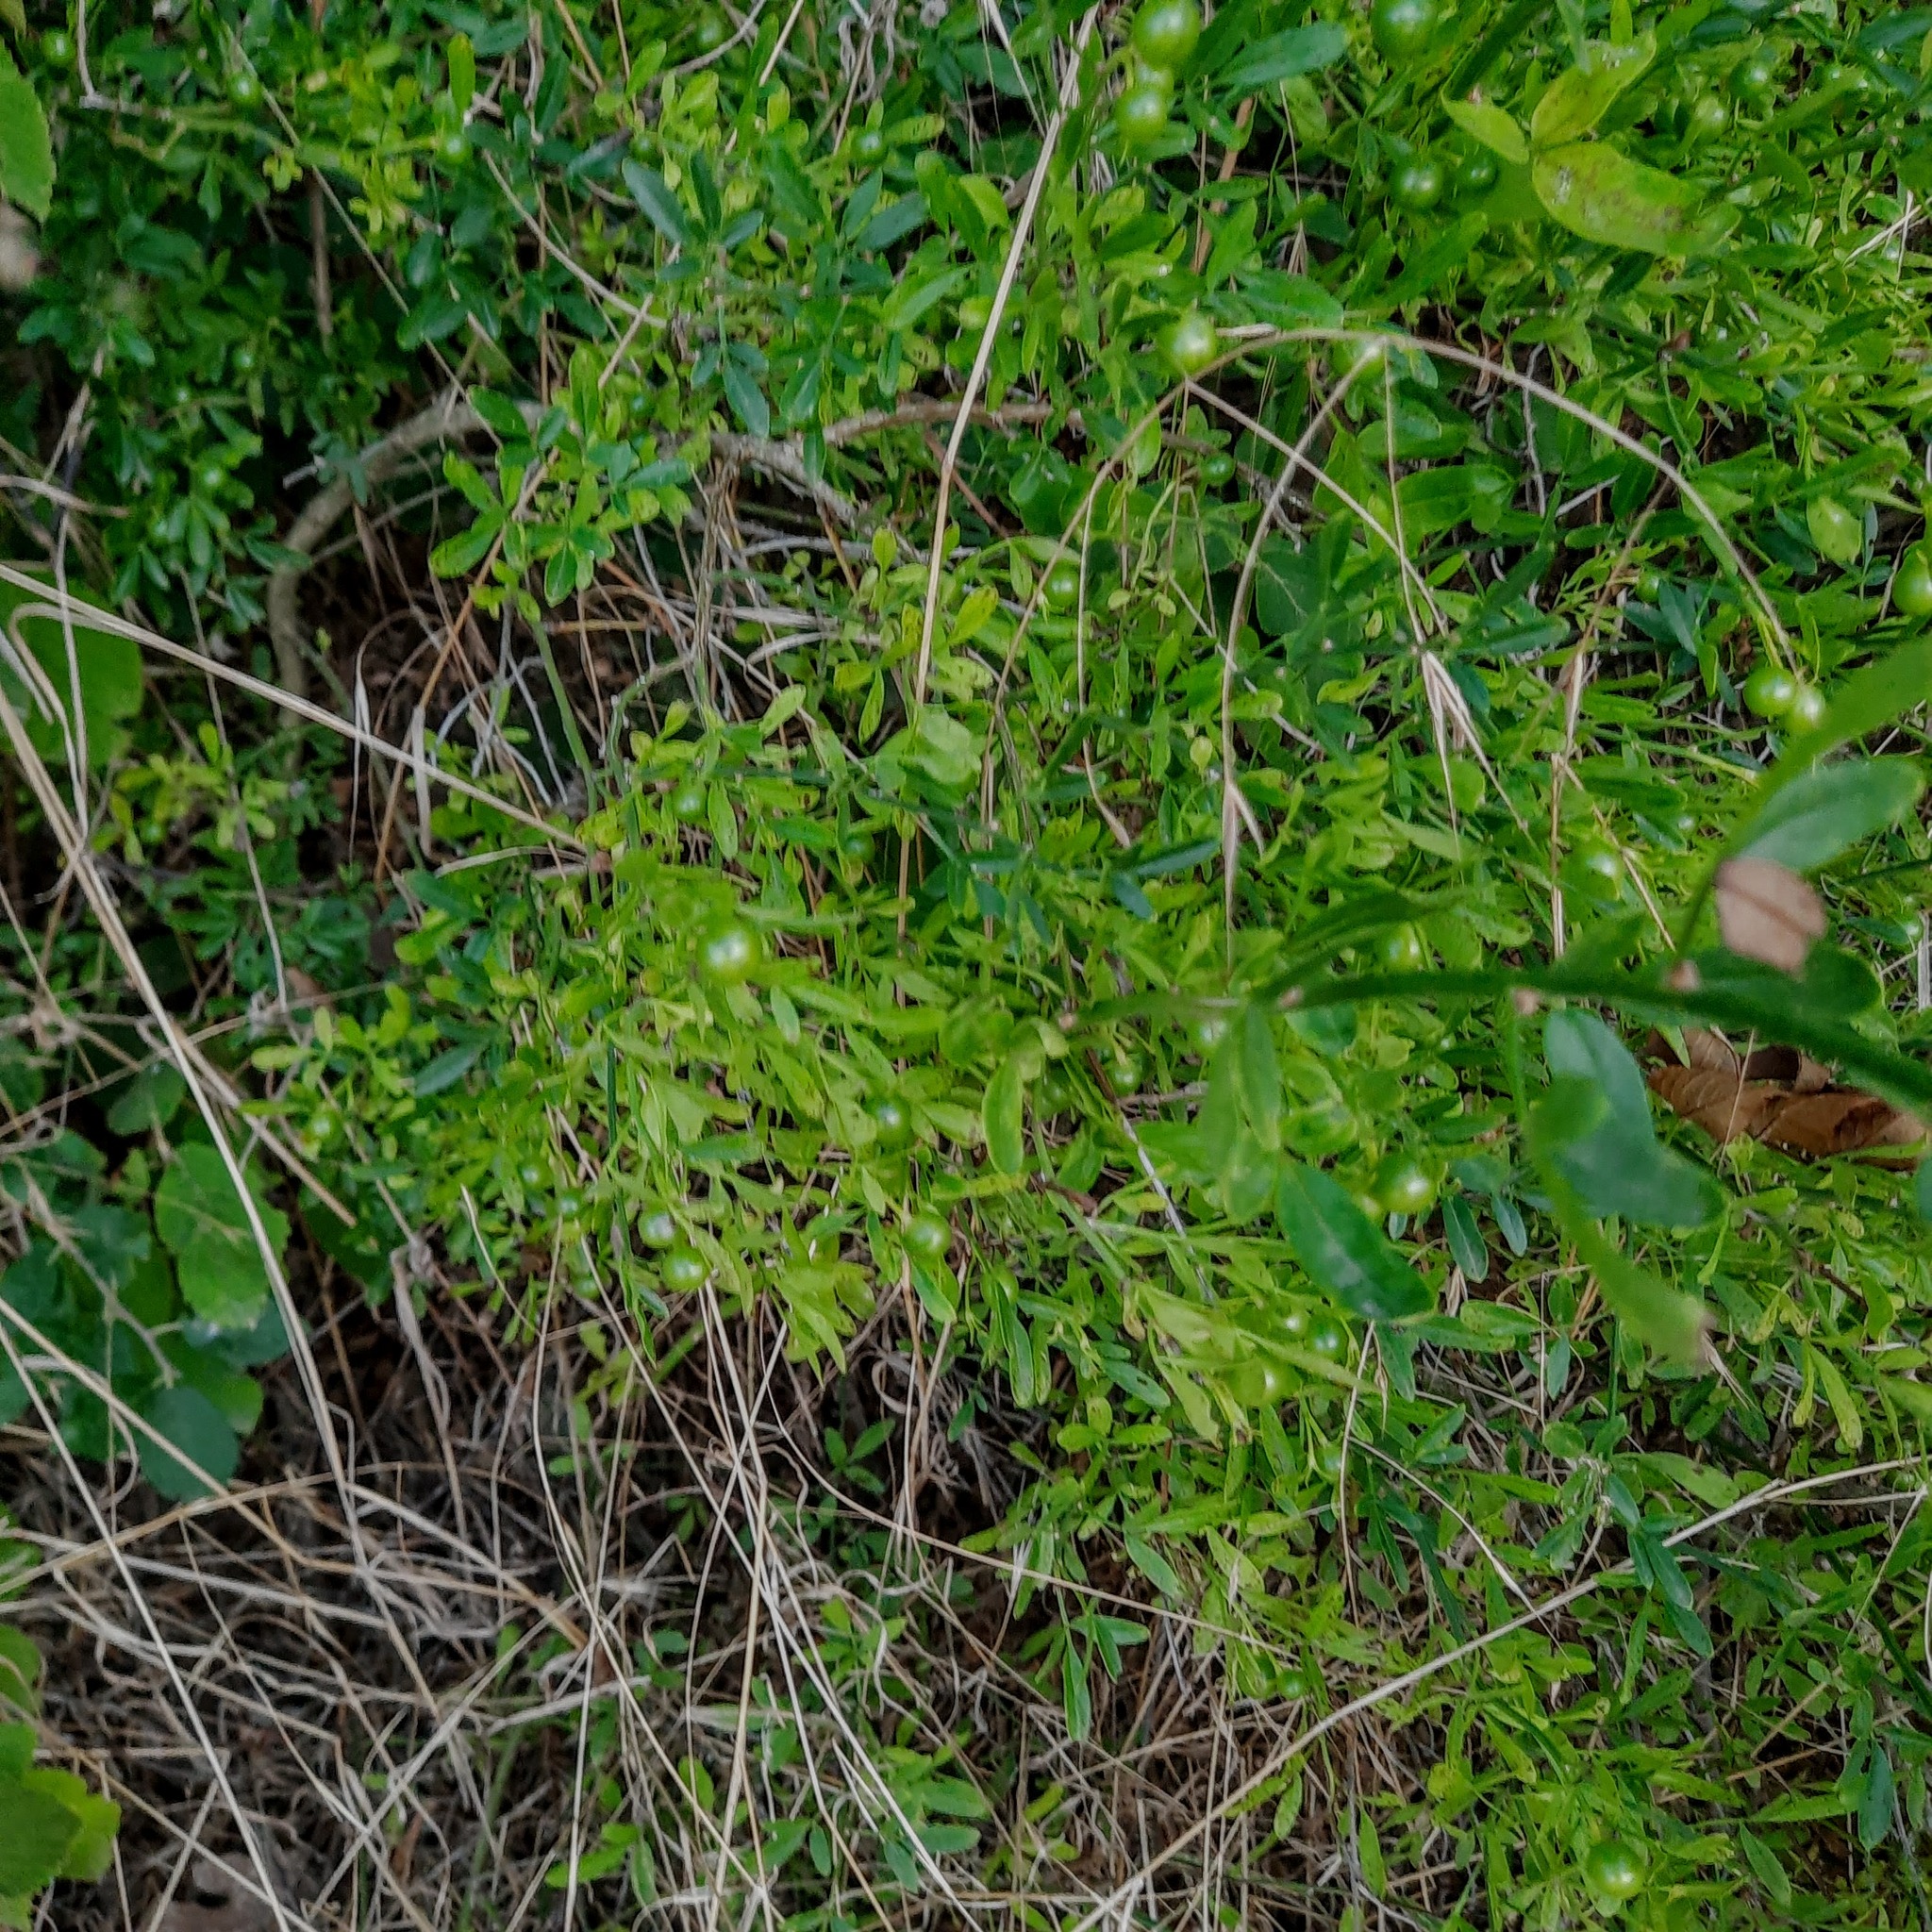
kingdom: Plantae
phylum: Tracheophyta
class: Magnoliopsida
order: Lamiales
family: Oleaceae
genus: Chrysojasminum
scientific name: Chrysojasminum fruticans
